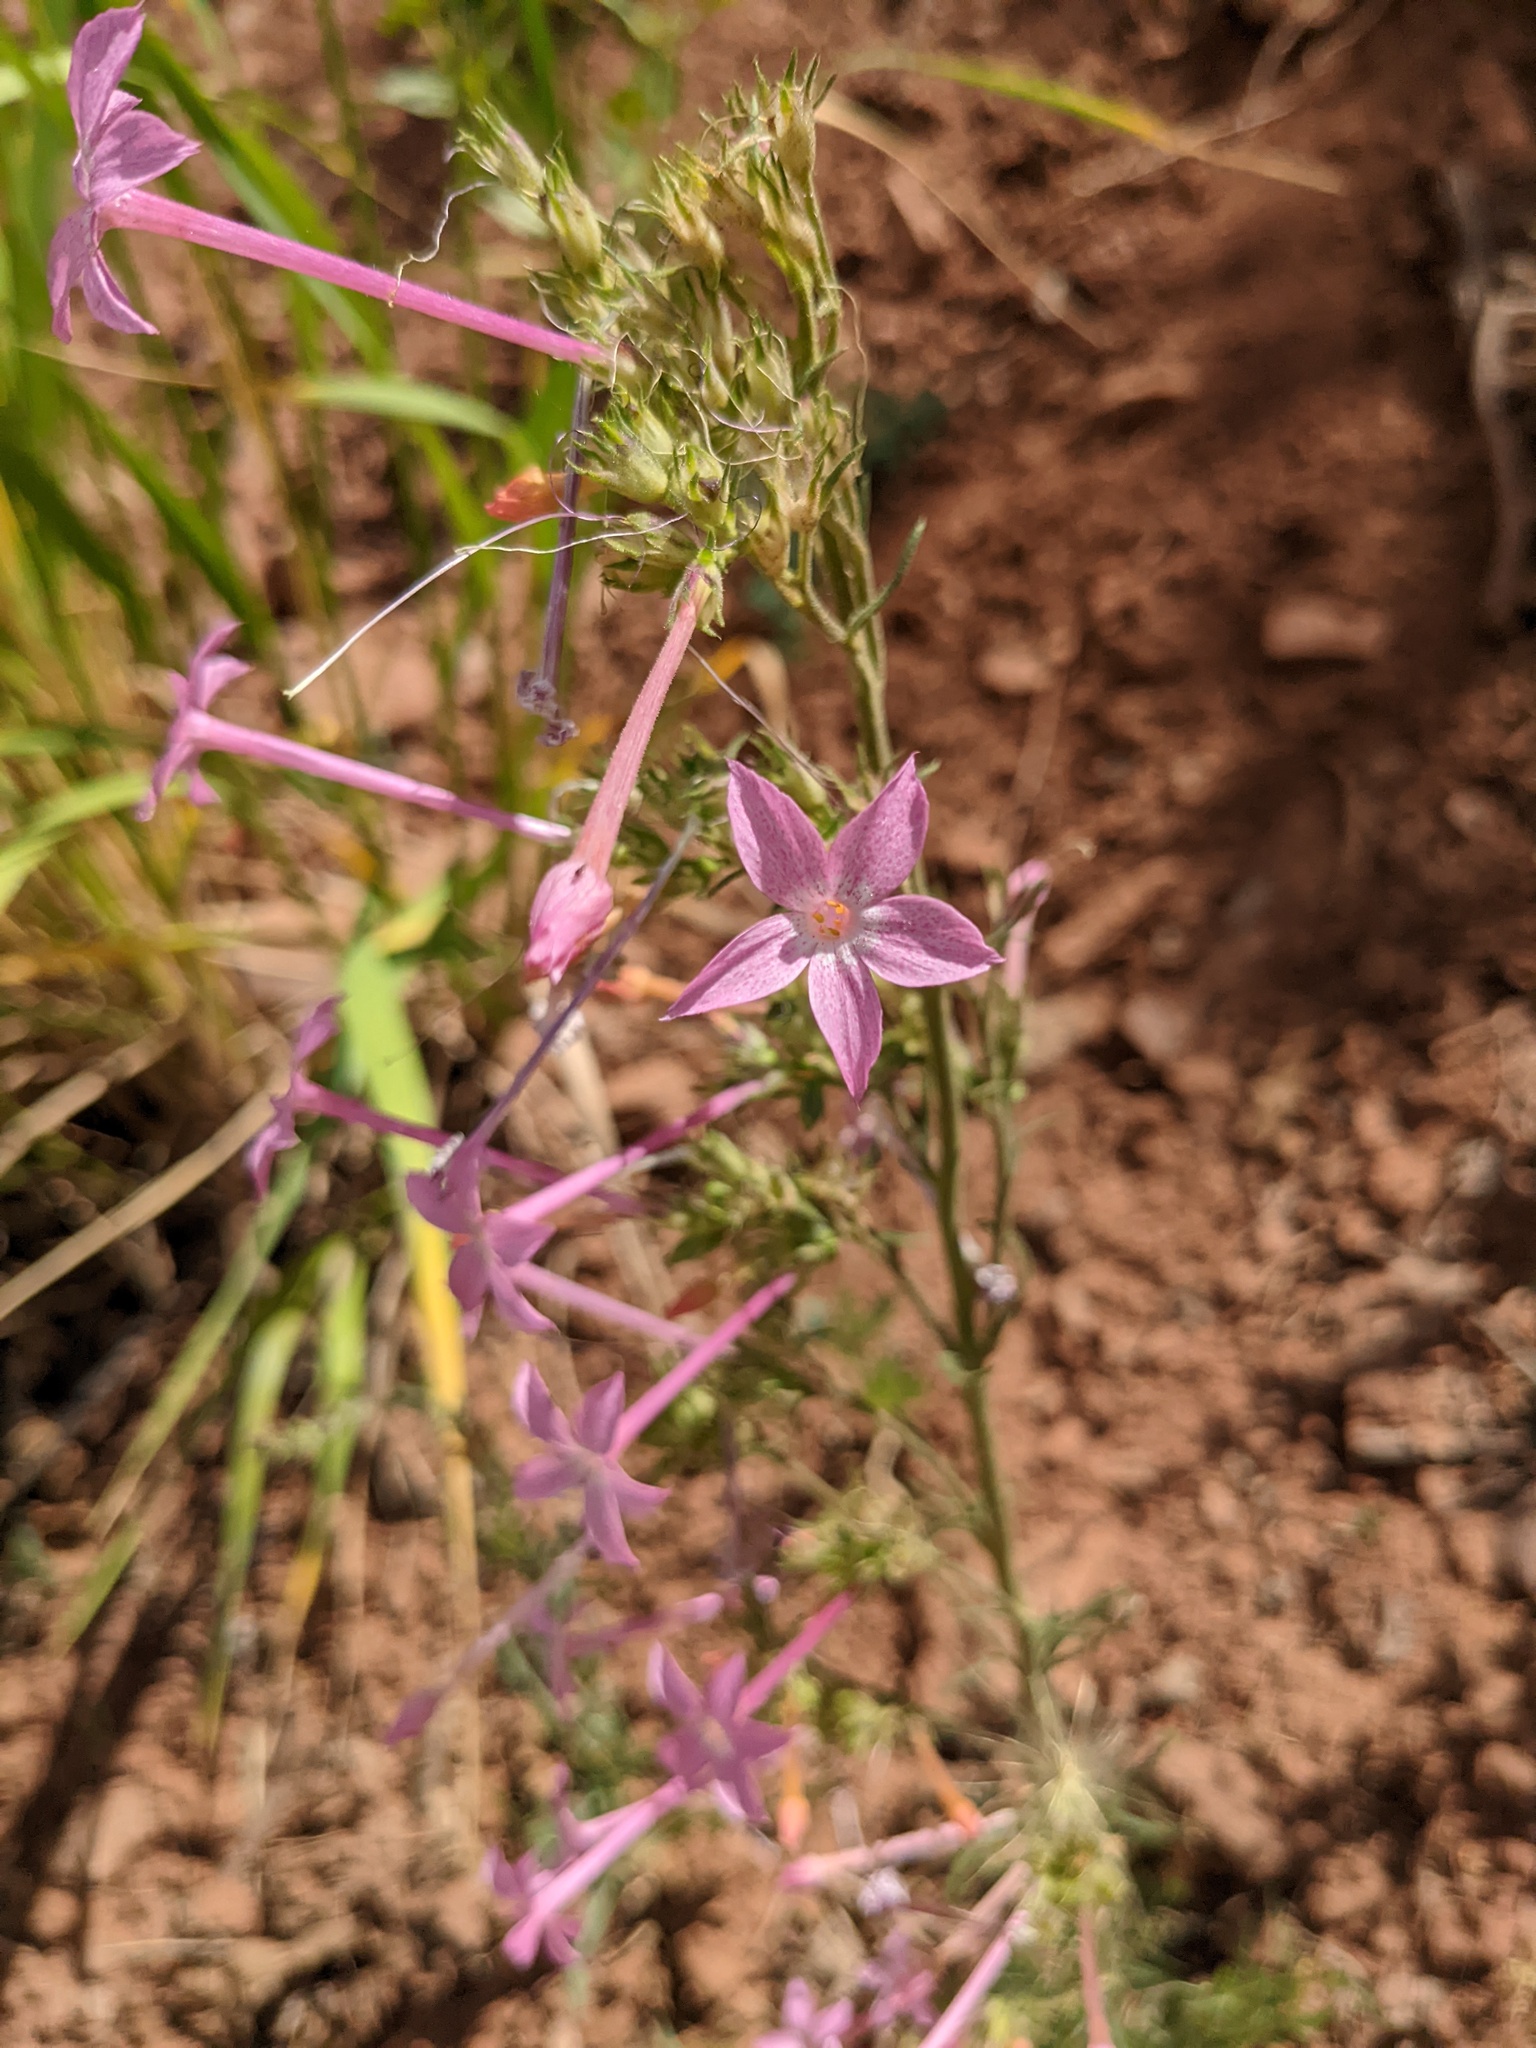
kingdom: Plantae
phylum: Tracheophyta
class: Magnoliopsida
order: Ericales
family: Polemoniaceae
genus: Ipomopsis
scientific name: Ipomopsis tenuituba
